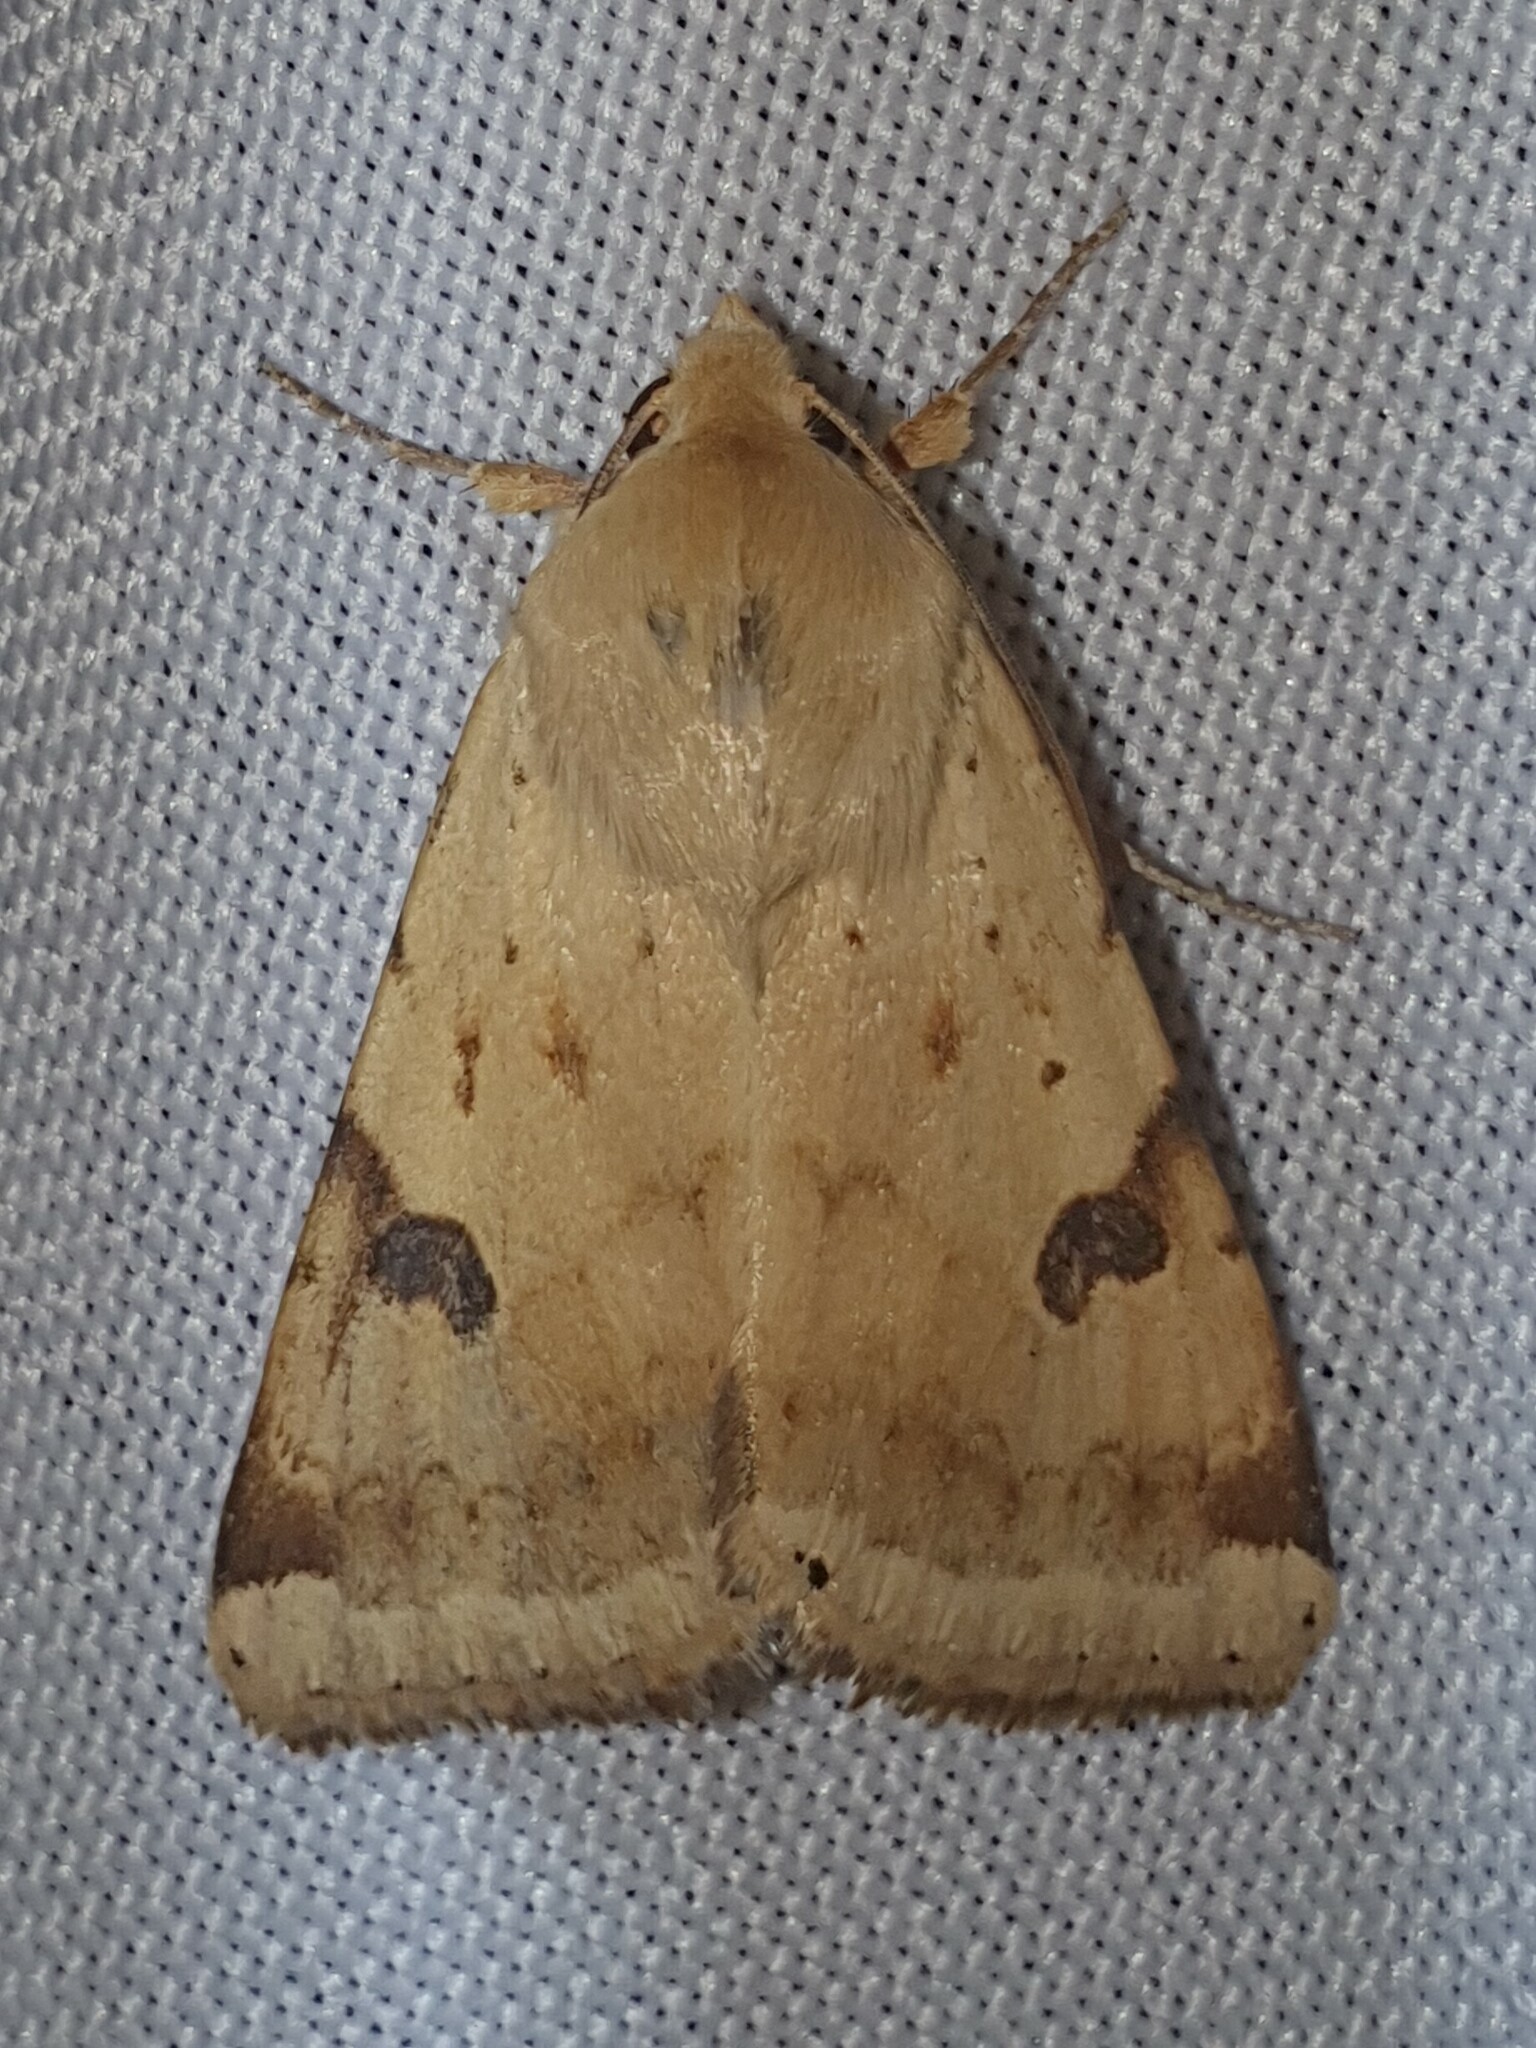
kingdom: Animalia
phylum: Arthropoda
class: Insecta
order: Lepidoptera
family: Noctuidae
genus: Heliothis
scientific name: Heliothis peltigera
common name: Bordered straw
